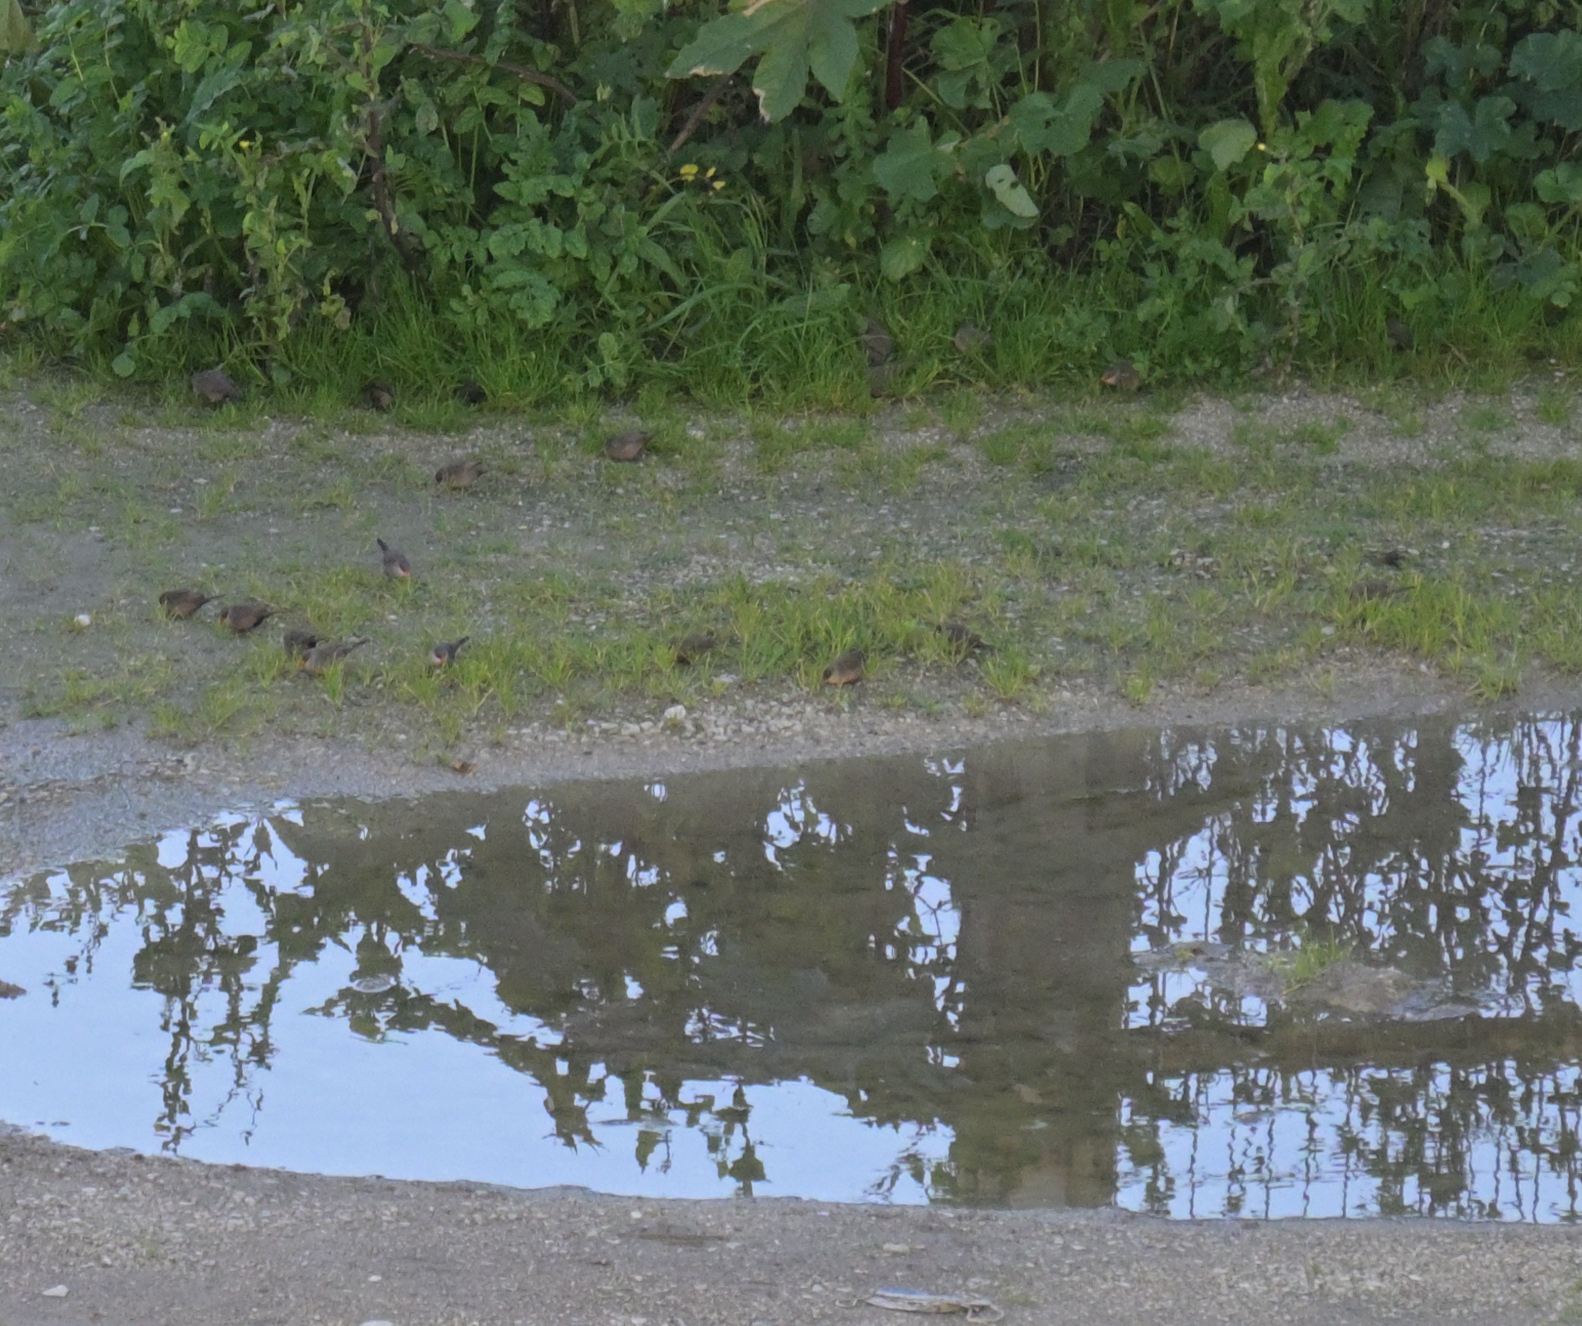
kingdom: Animalia
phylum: Chordata
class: Aves
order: Passeriformes
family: Estrildidae
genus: Estrilda
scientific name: Estrilda astrild
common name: Common waxbill
